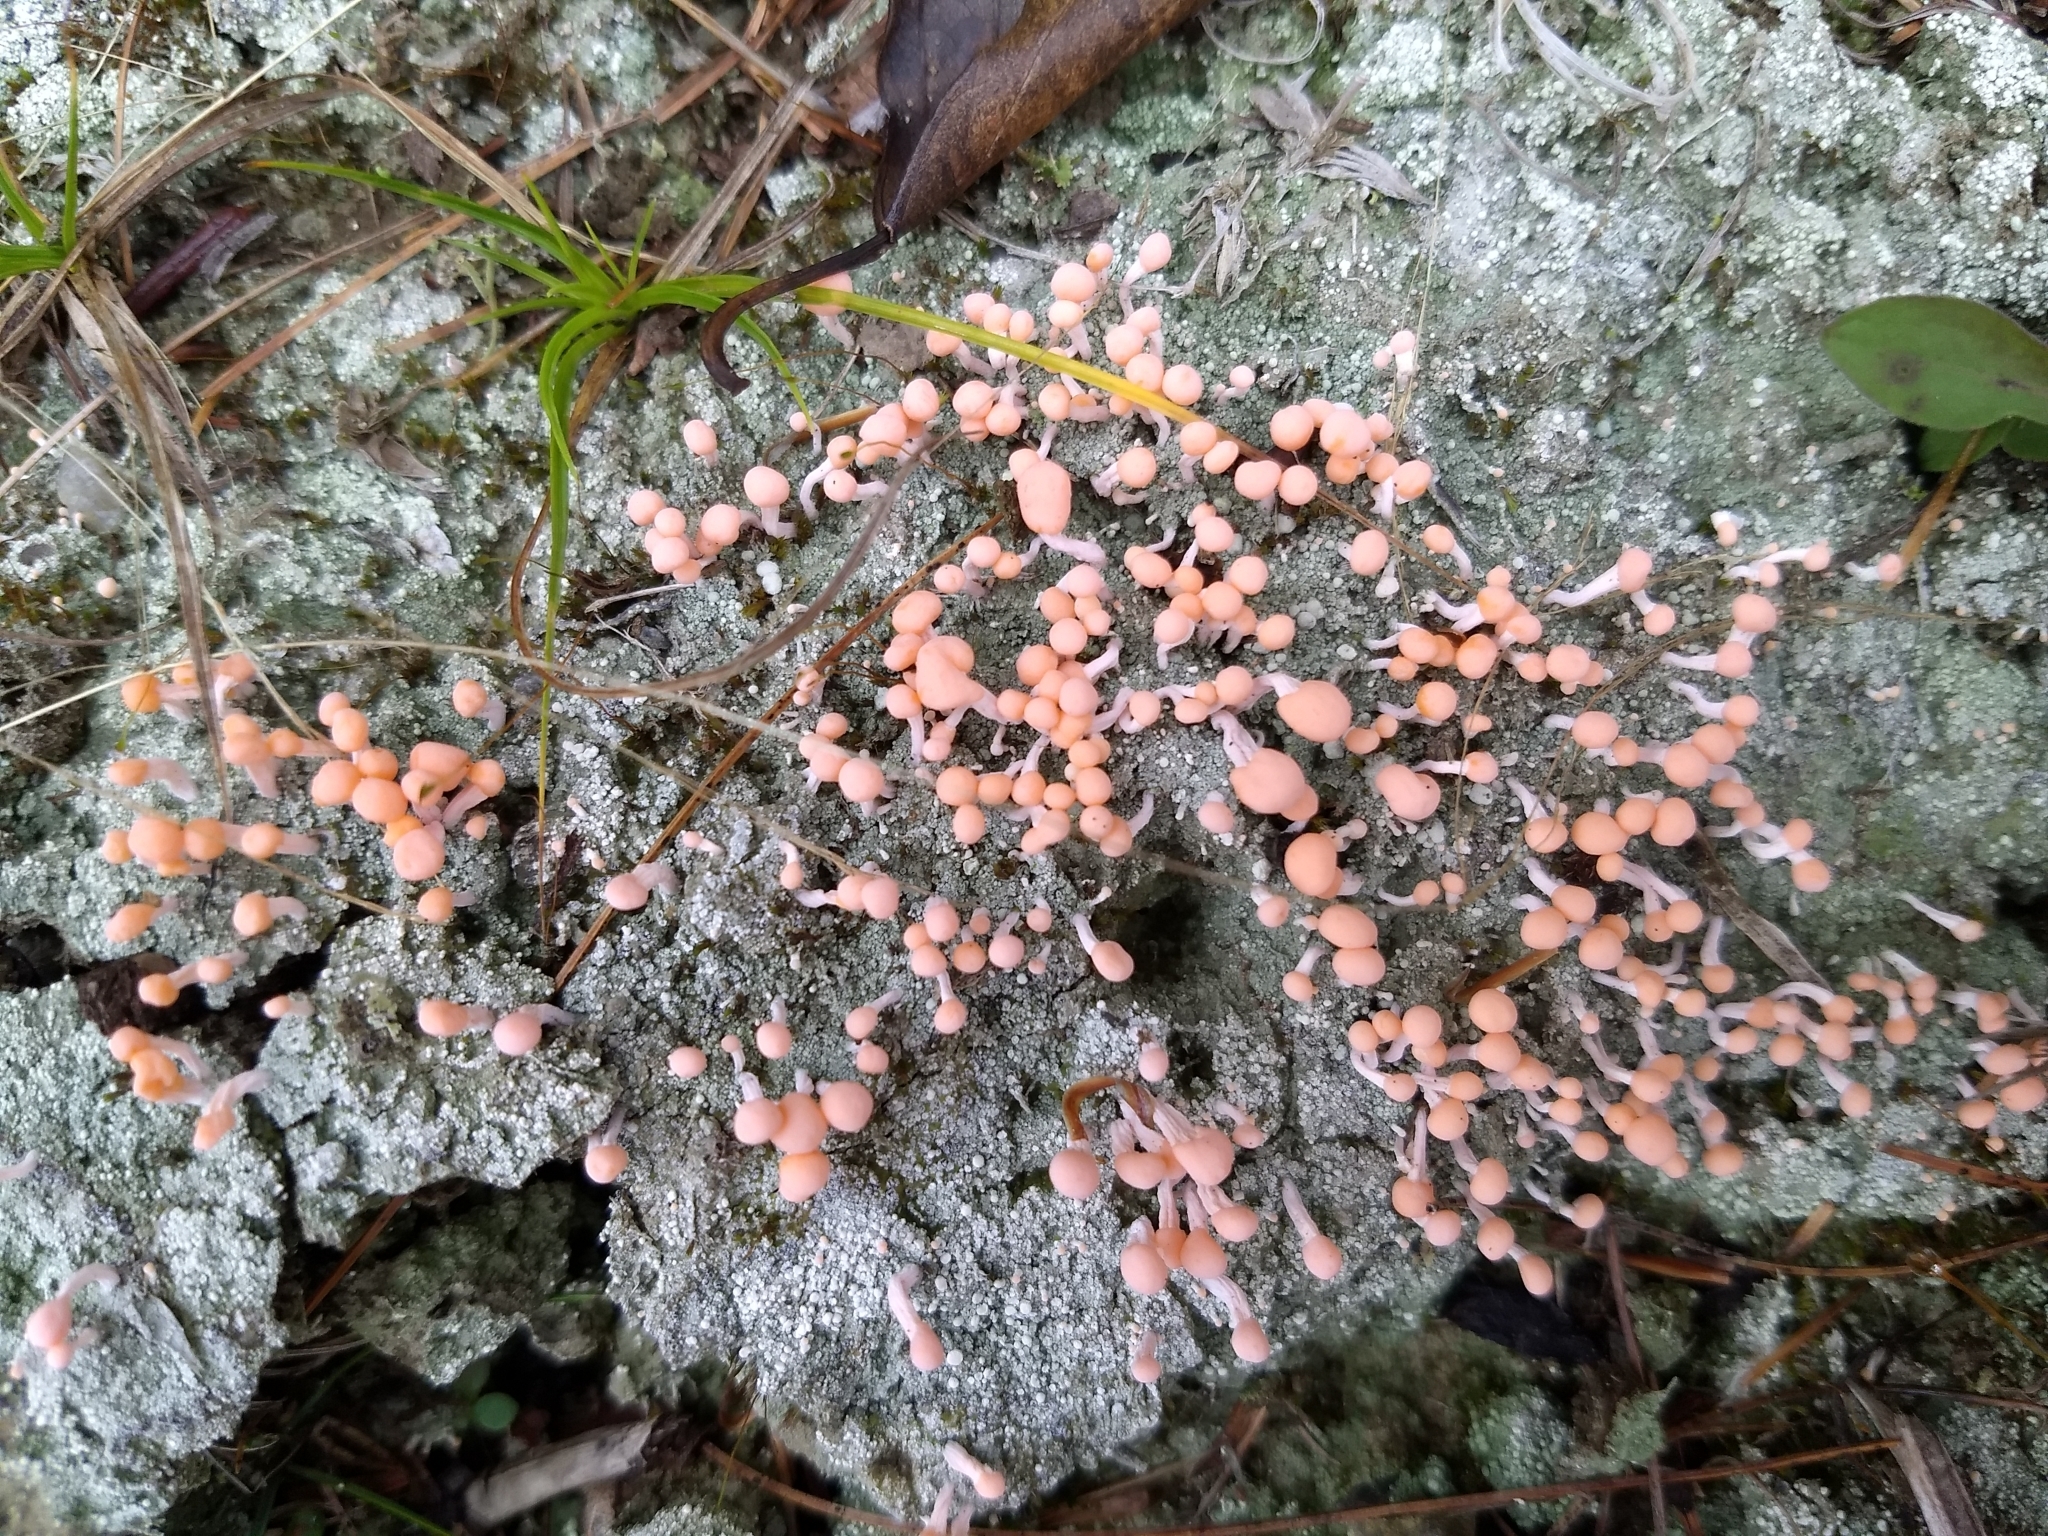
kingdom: Fungi
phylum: Ascomycota
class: Lecanoromycetes
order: Pertusariales
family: Icmadophilaceae
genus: Dibaeis
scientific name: Dibaeis baeomyces
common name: Pink earth lichen
